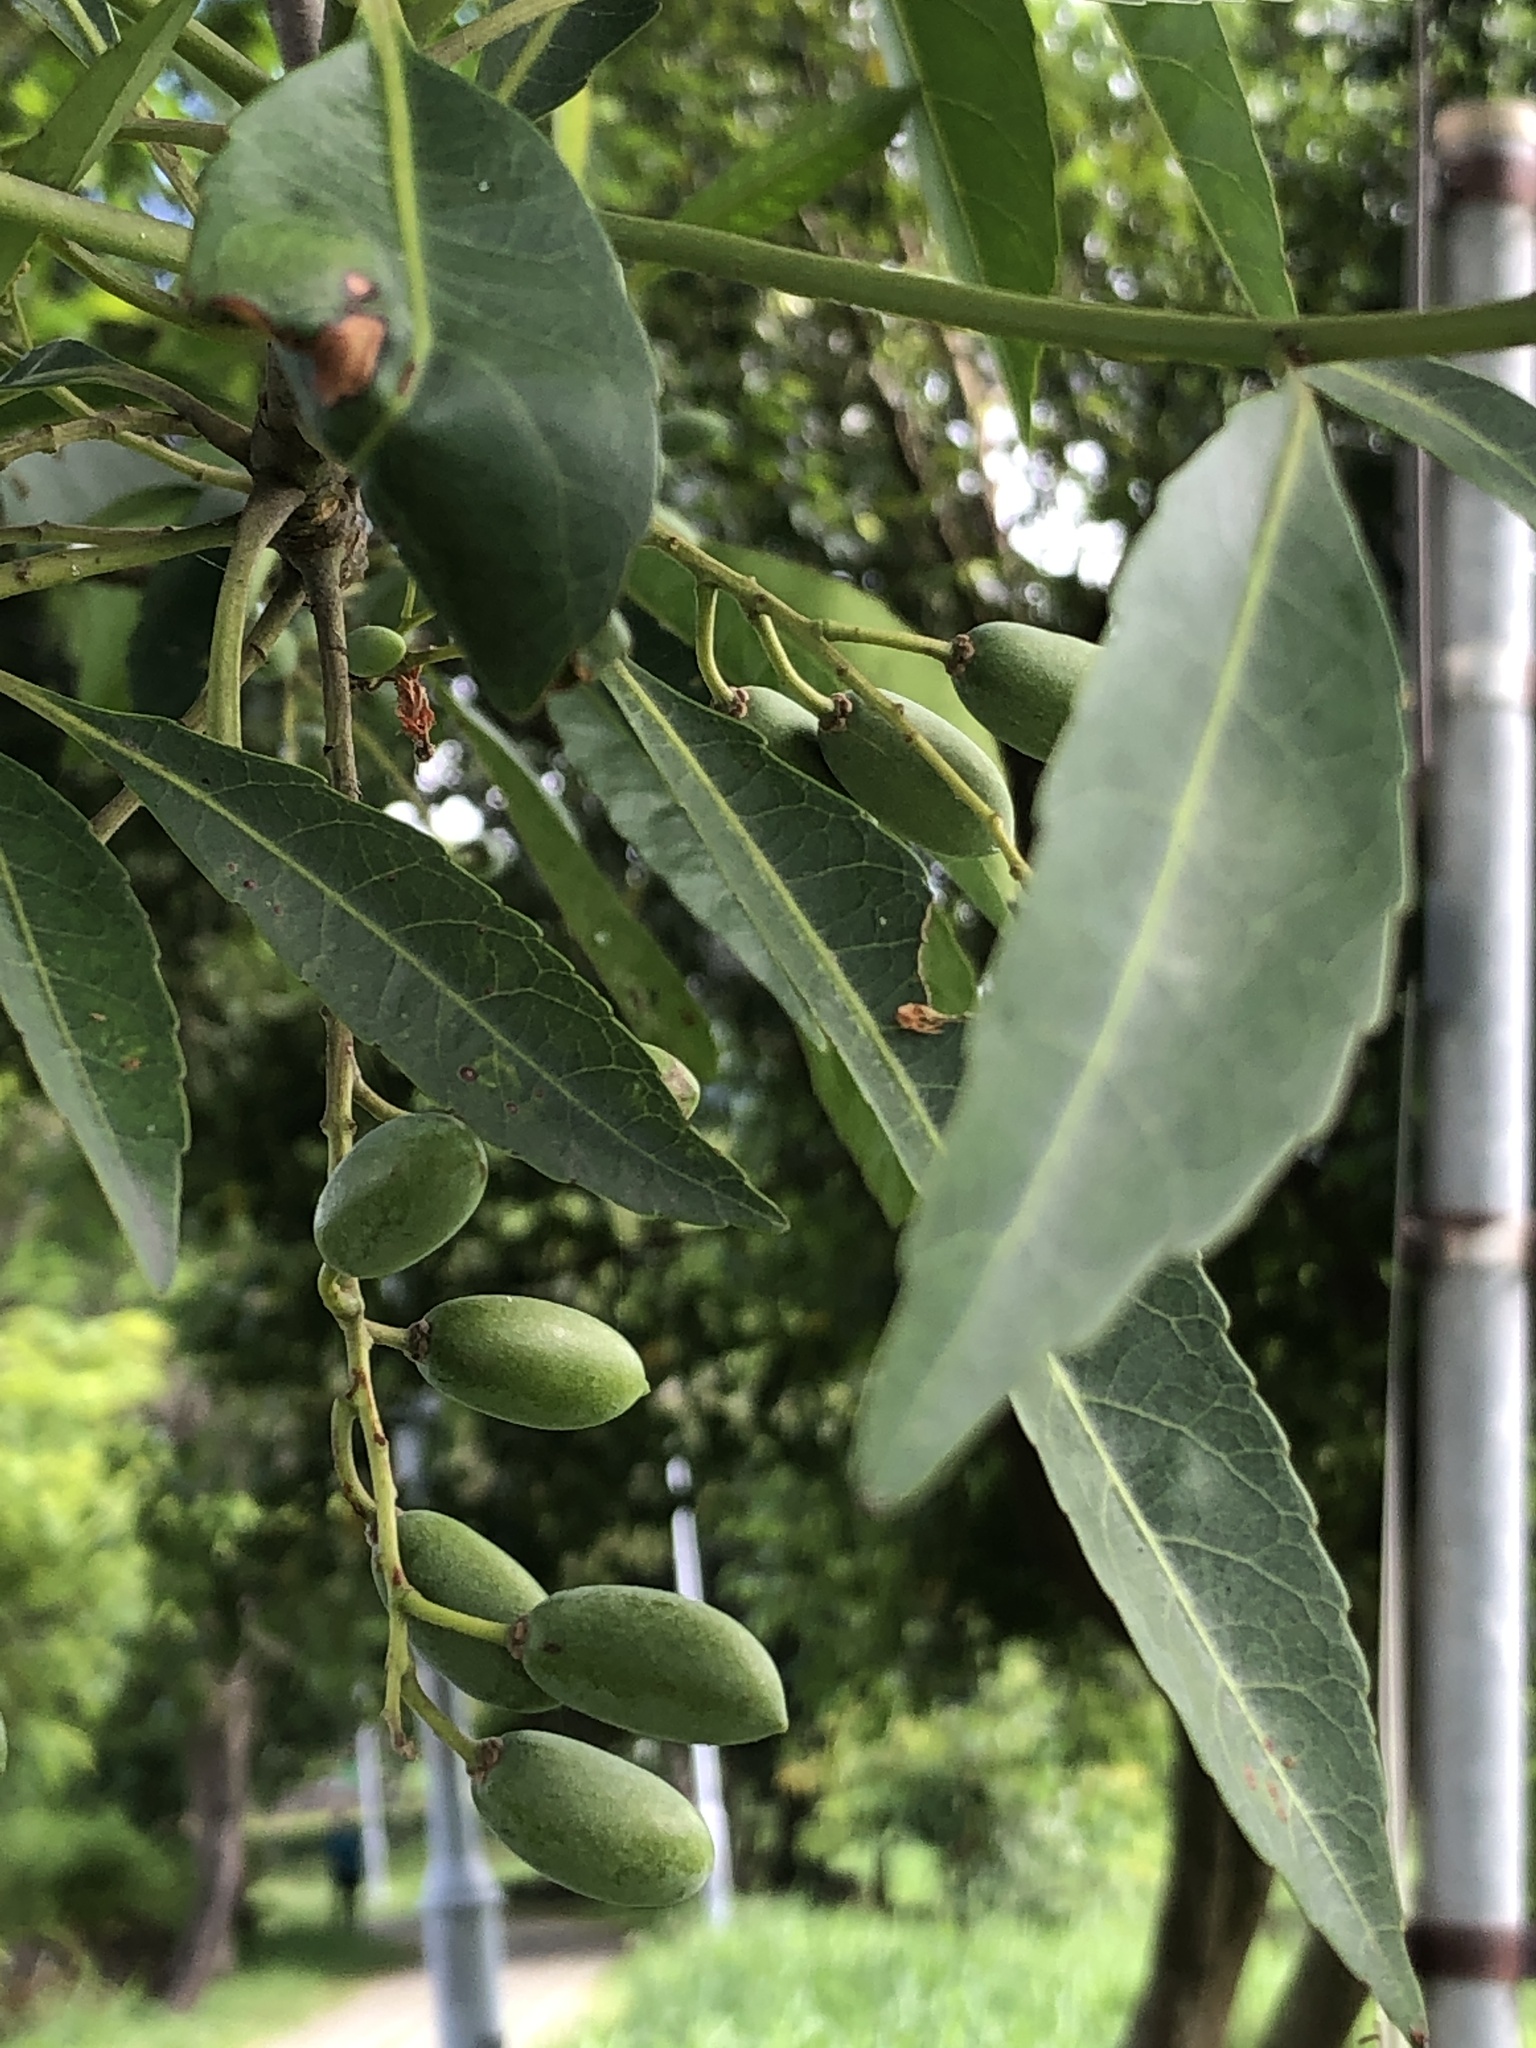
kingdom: Plantae
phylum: Tracheophyta
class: Magnoliopsida
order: Oxalidales
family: Elaeocarpaceae
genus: Elaeocarpus
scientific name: Elaeocarpus decipiens
